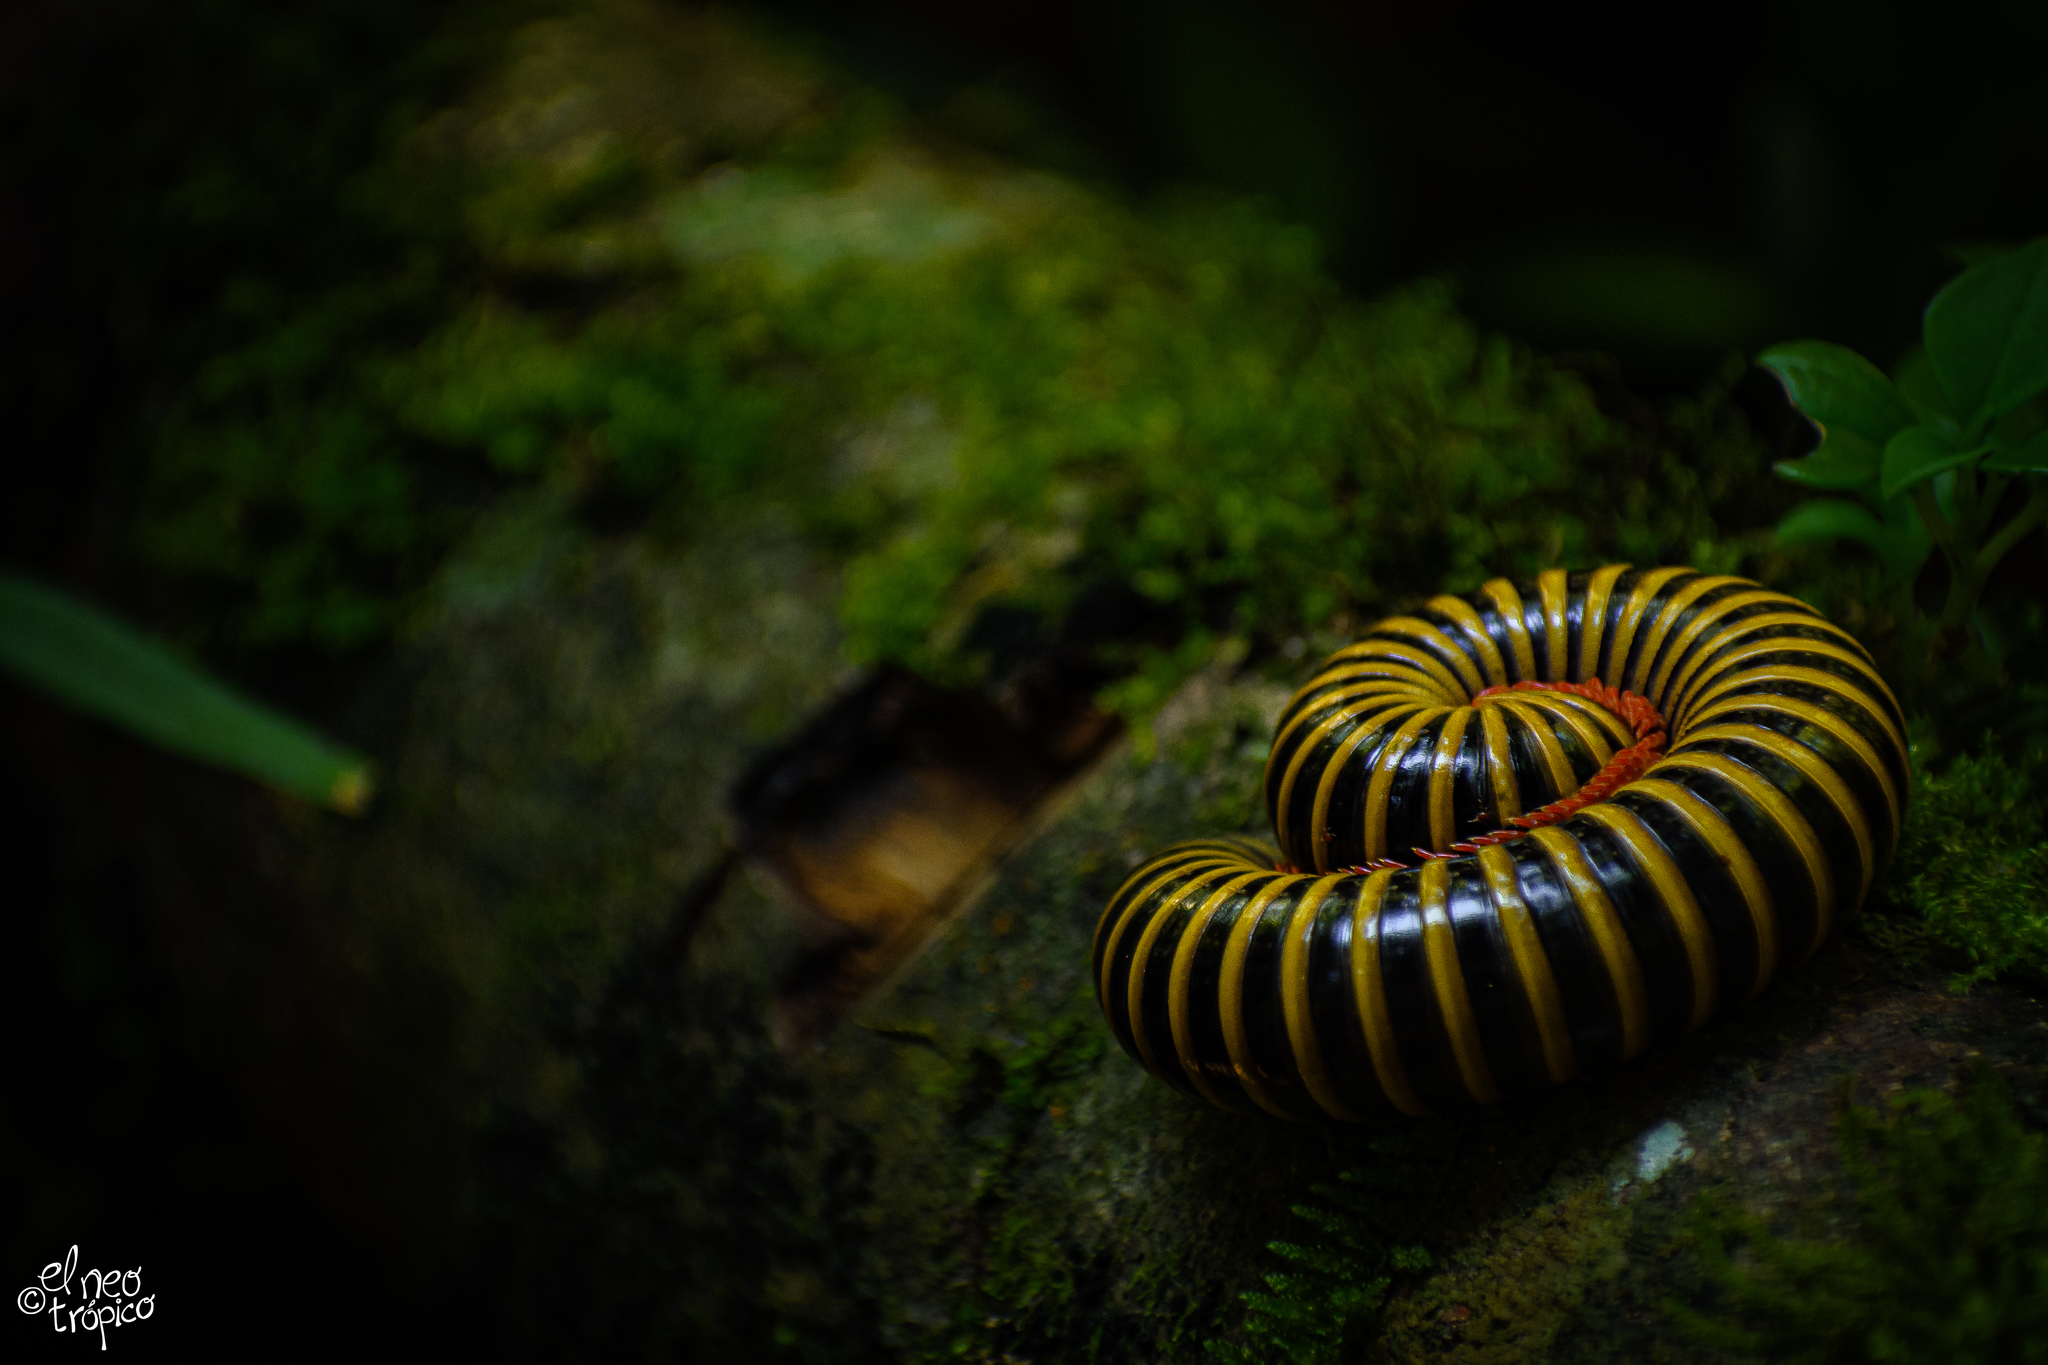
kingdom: Animalia
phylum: Arthropoda
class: Diplopoda
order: Spirobolida
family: Messicobolidae
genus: Messicobolus
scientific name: Messicobolus magnificus
